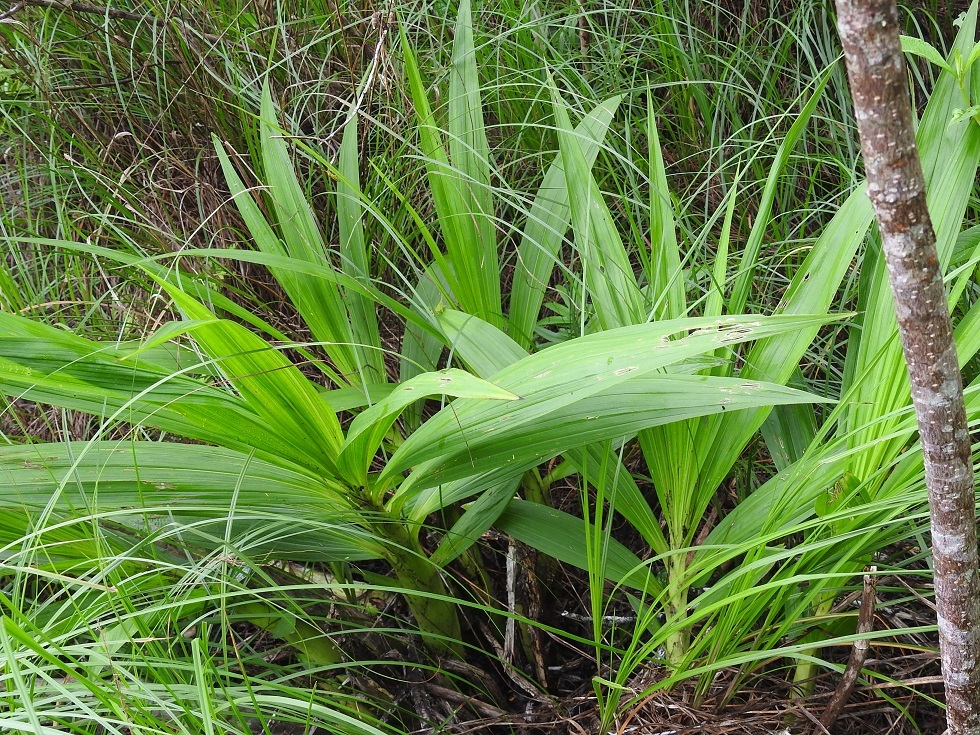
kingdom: Plantae
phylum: Tracheophyta
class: Liliopsida
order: Asparagales
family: Orchidaceae
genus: Cyrtopodium
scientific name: Cyrtopodium macrobulbon
